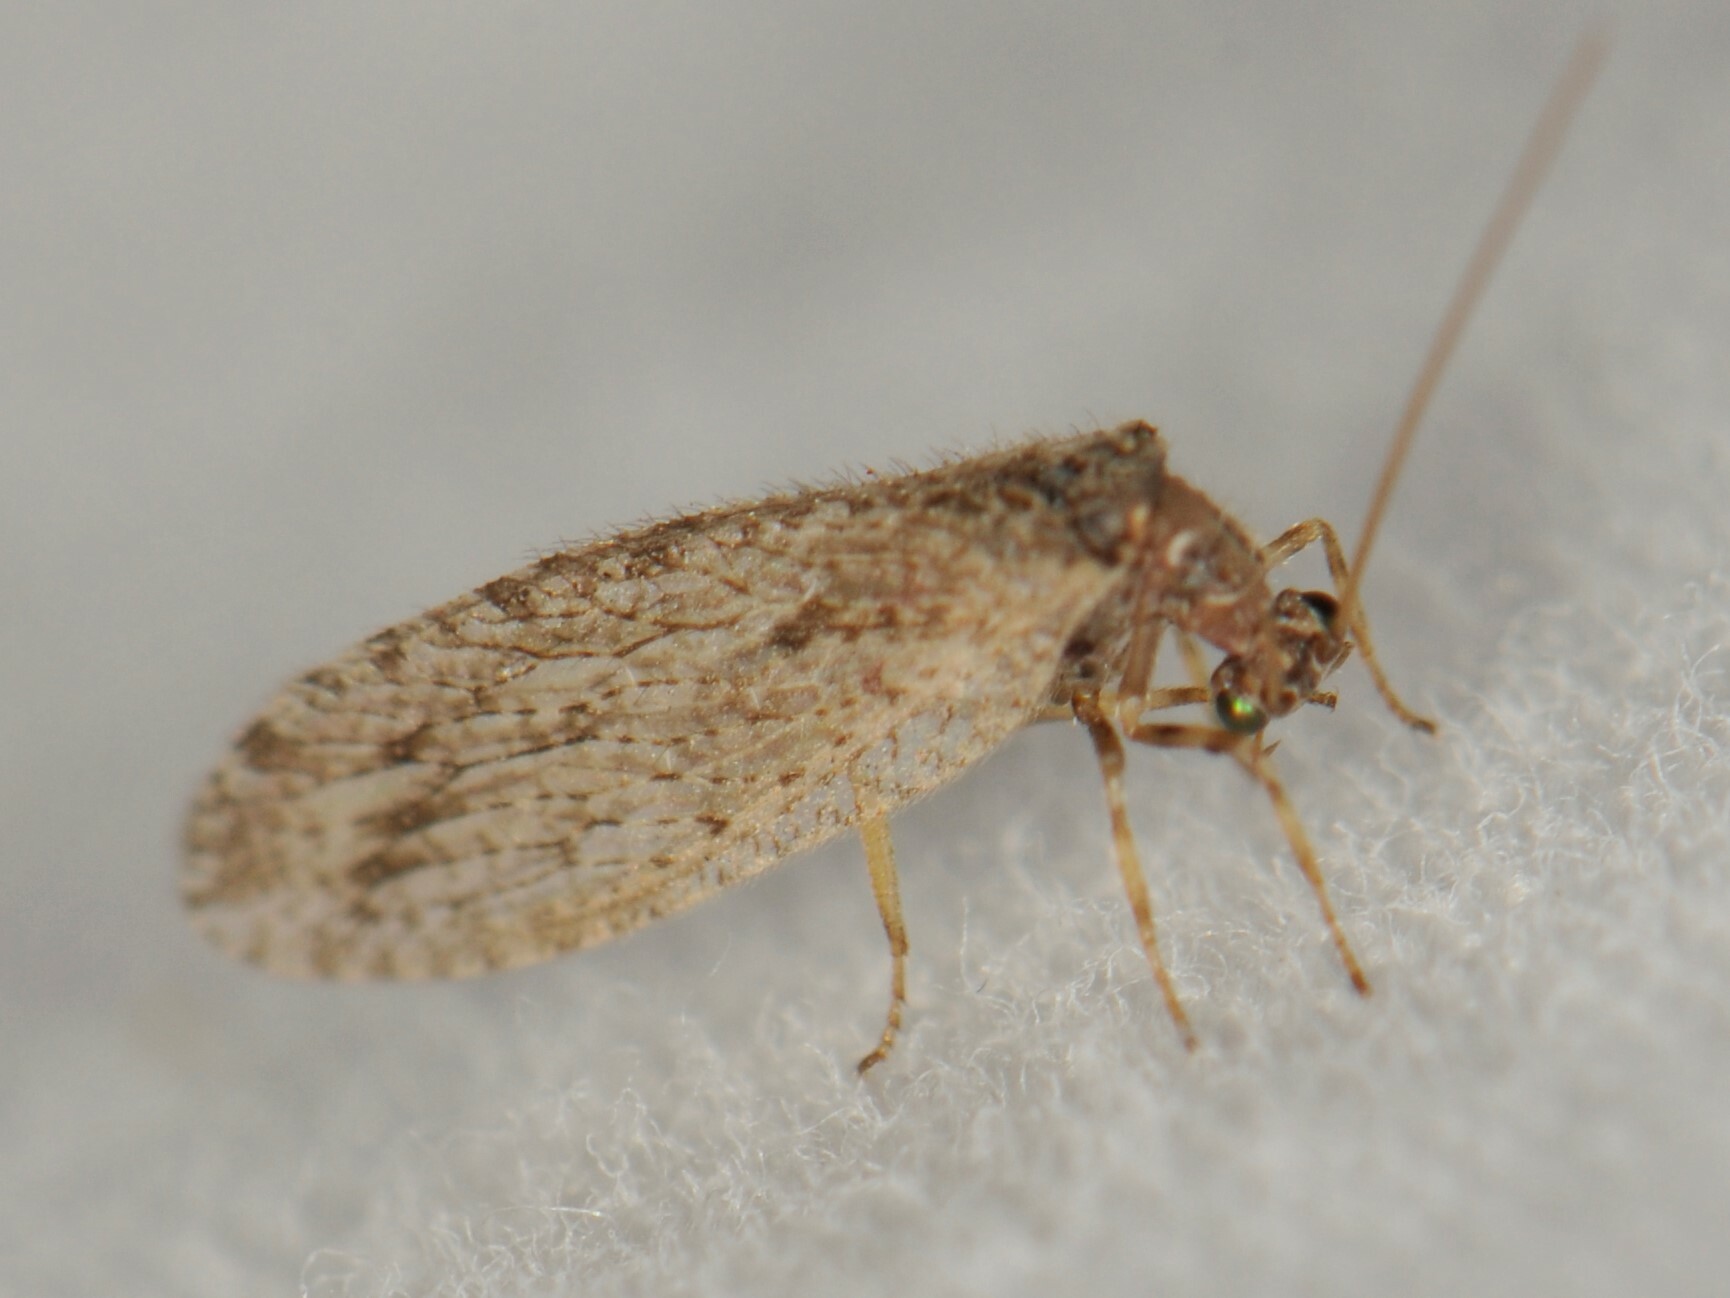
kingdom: Animalia
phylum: Arthropoda
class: Insecta
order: Neuroptera
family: Hemerobiidae
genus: Micromus
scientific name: Micromus variolosus
